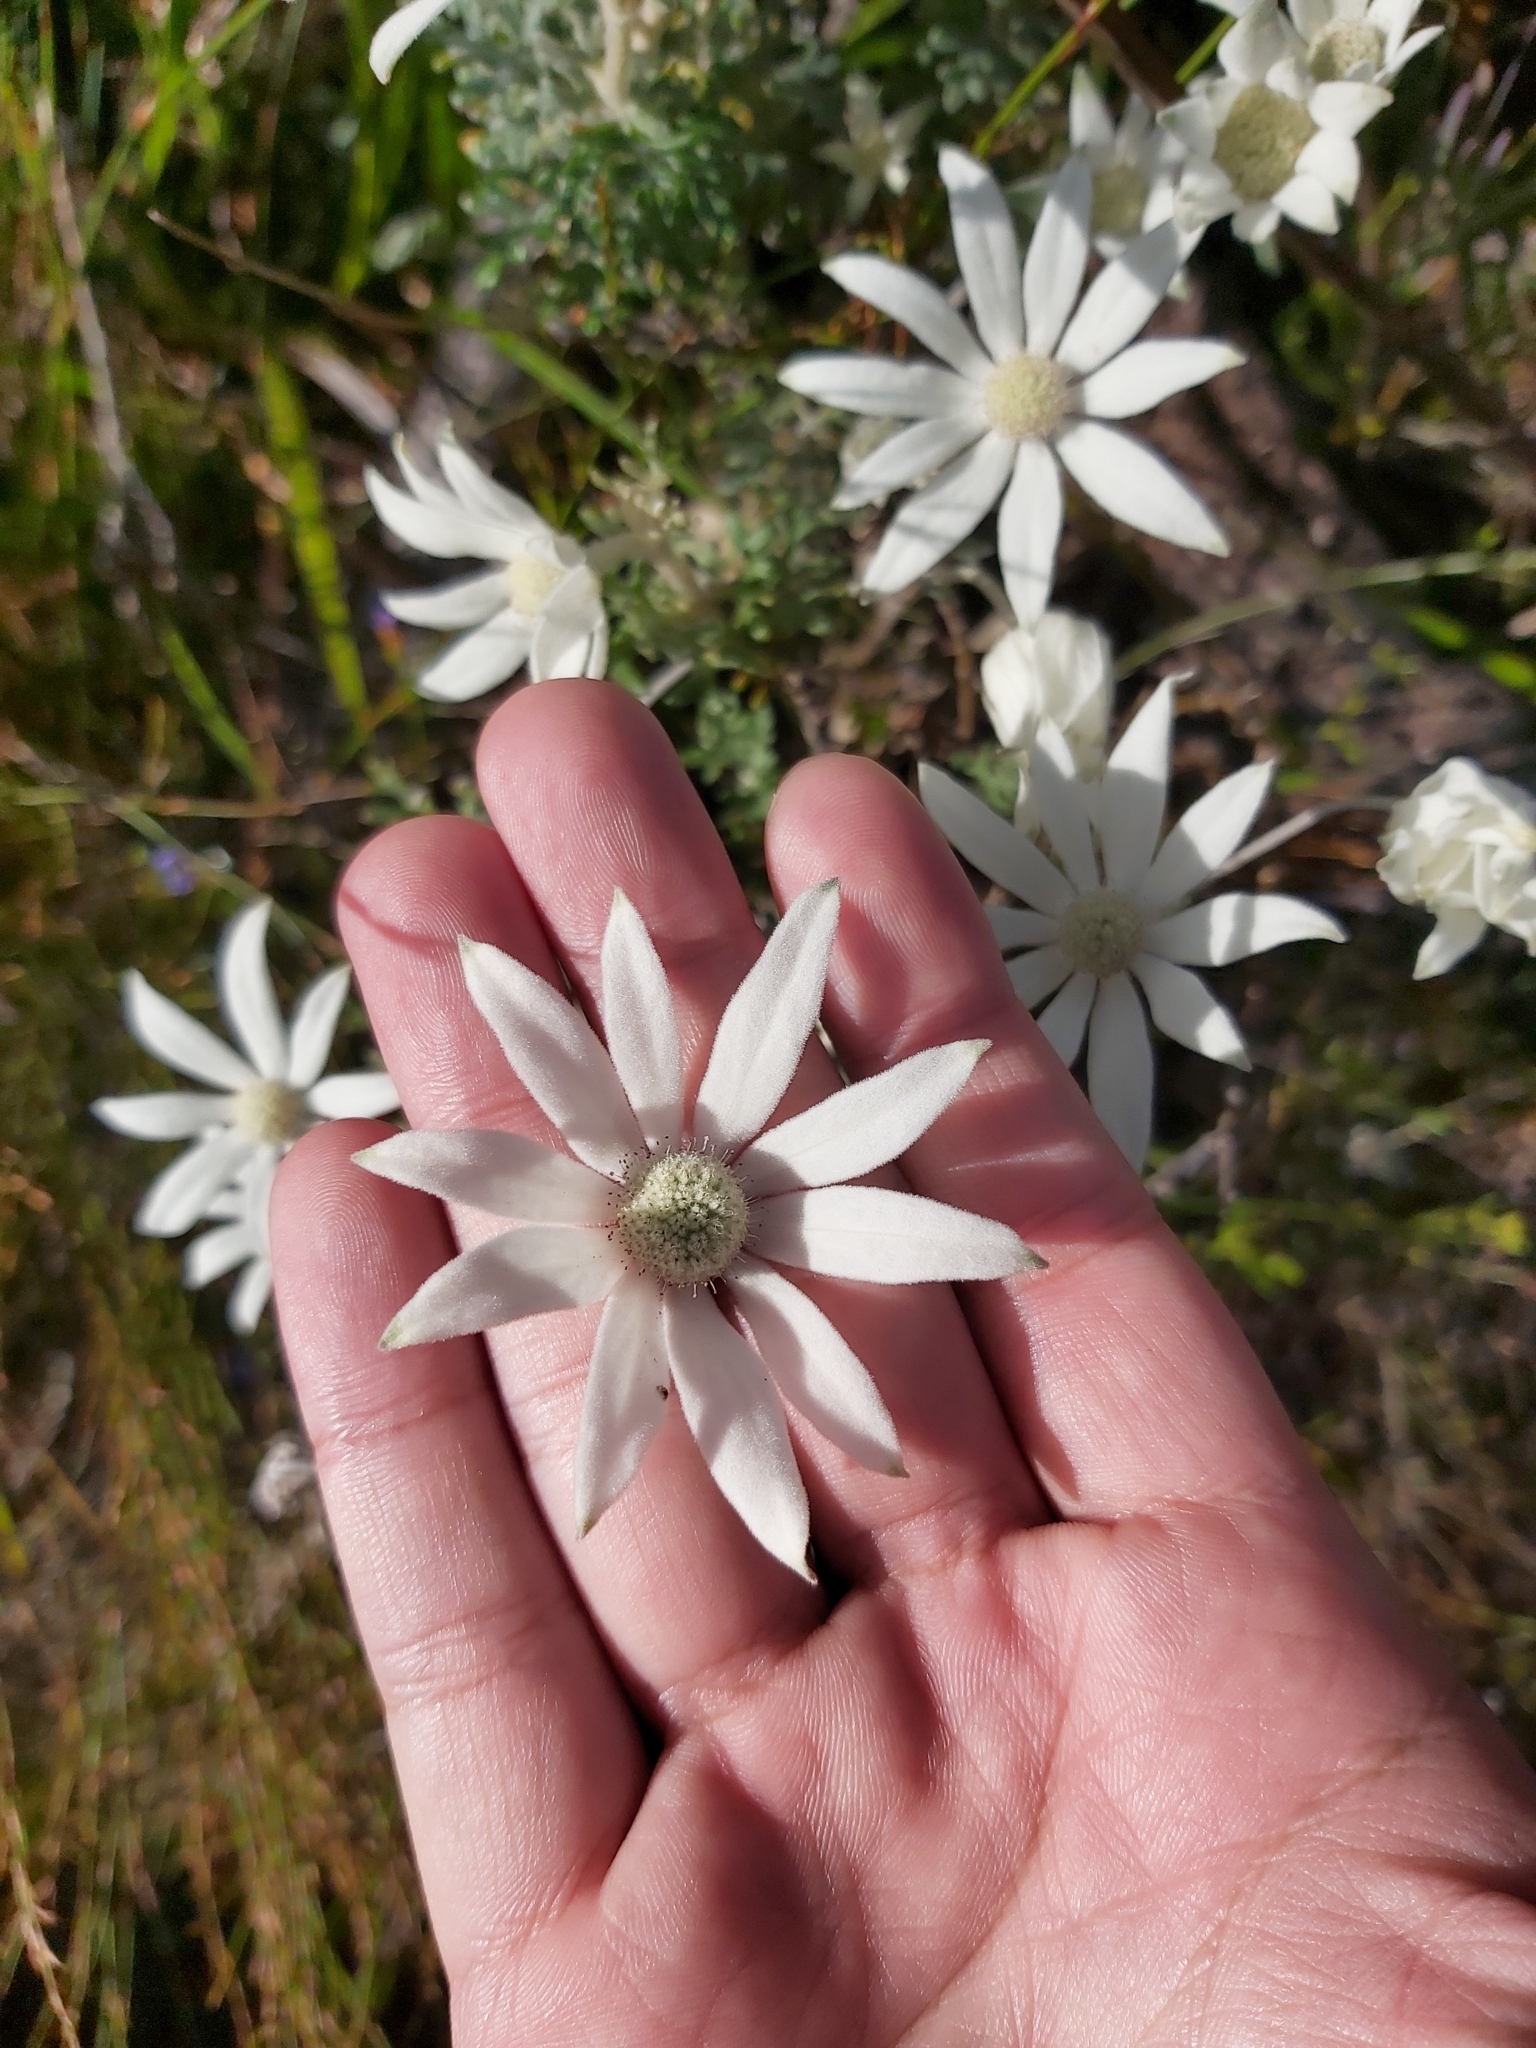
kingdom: Plantae
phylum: Tracheophyta
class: Magnoliopsida
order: Apiales
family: Apiaceae
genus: Actinotus
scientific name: Actinotus helianthi
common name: Flannel-flower
